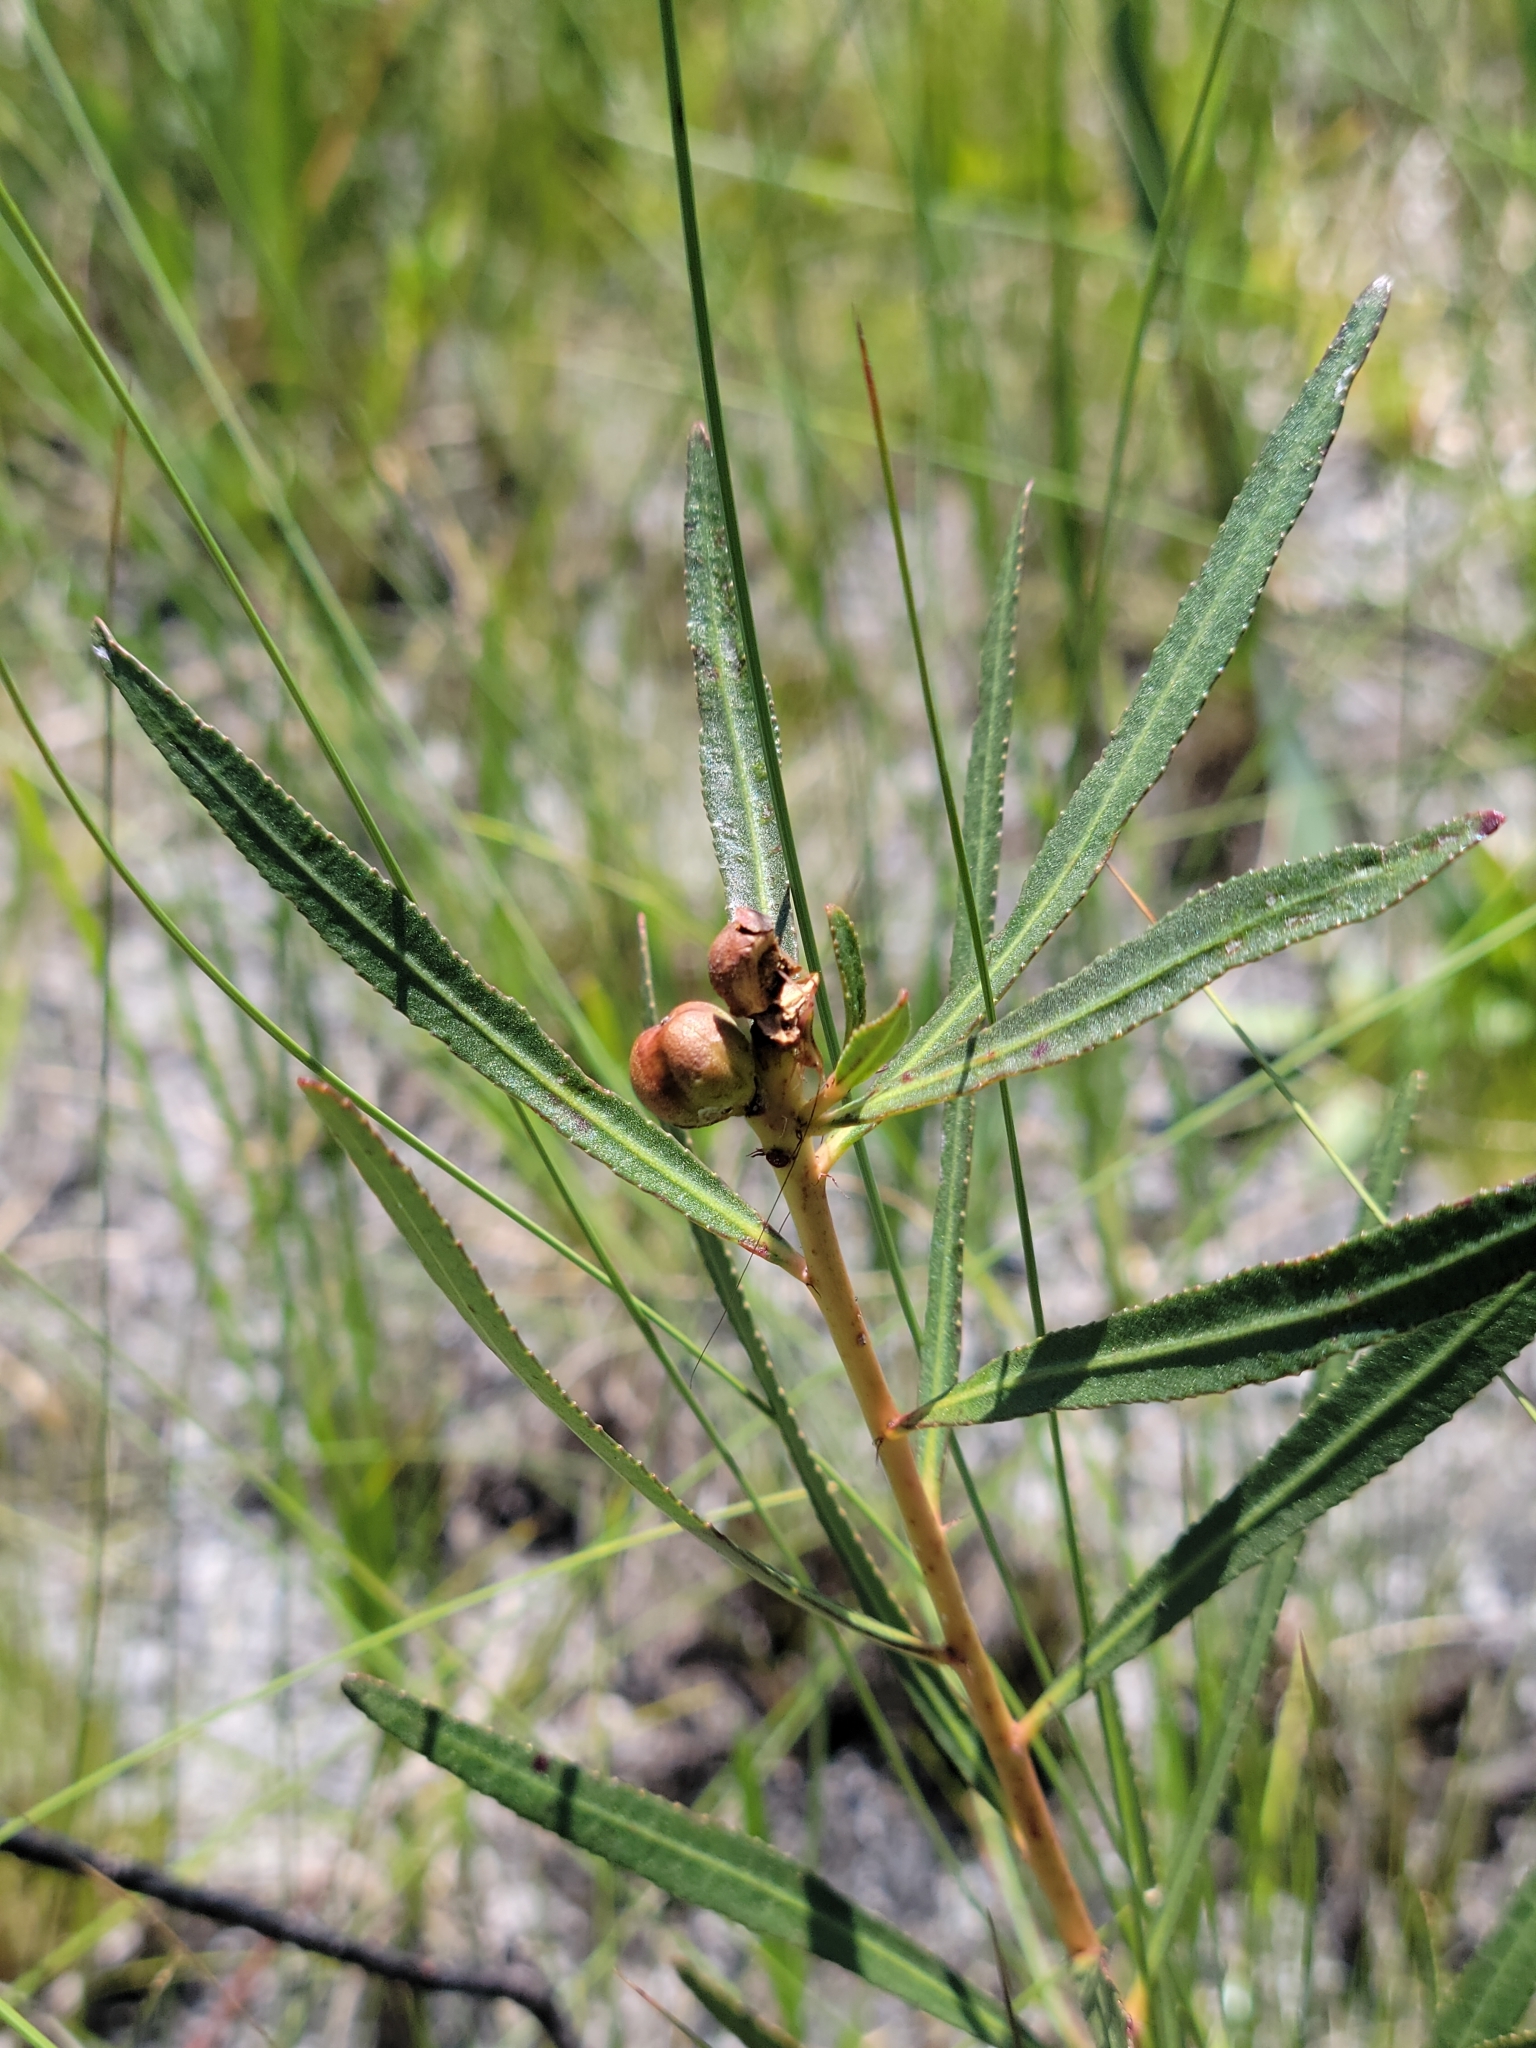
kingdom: Plantae
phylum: Tracheophyta
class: Magnoliopsida
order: Malpighiales
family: Euphorbiaceae
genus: Stillingia
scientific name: Stillingia sylvatica
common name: Queen's-delight
